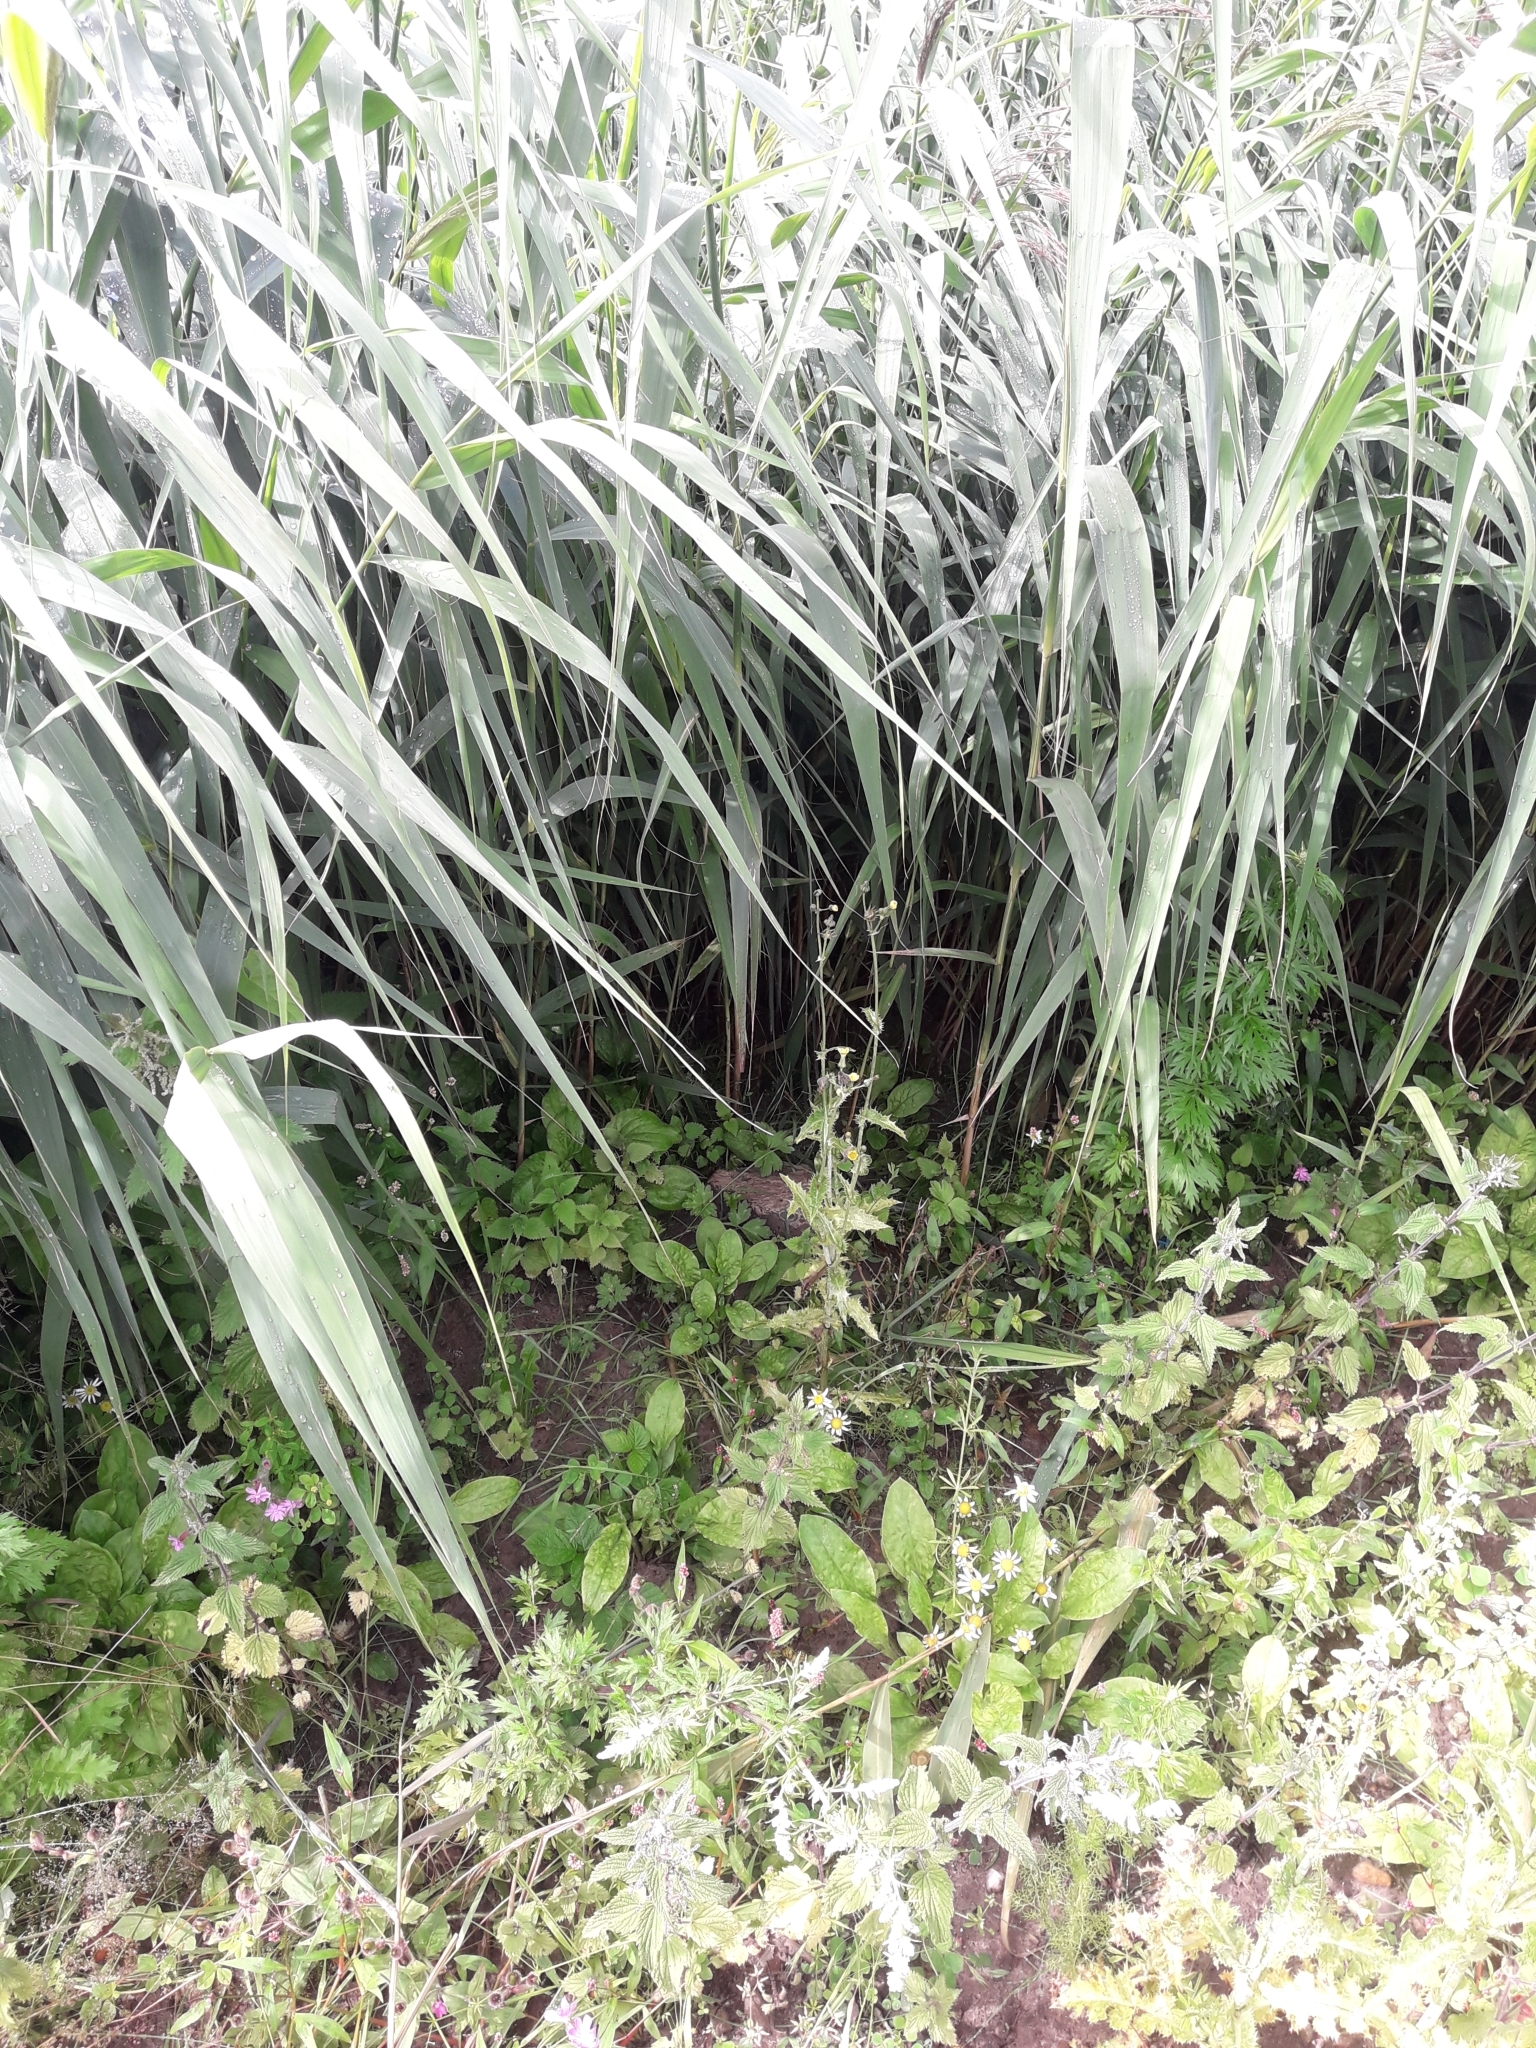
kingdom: Plantae
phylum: Tracheophyta
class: Liliopsida
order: Poales
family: Poaceae
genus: Phragmites
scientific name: Phragmites australis
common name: Common reed
